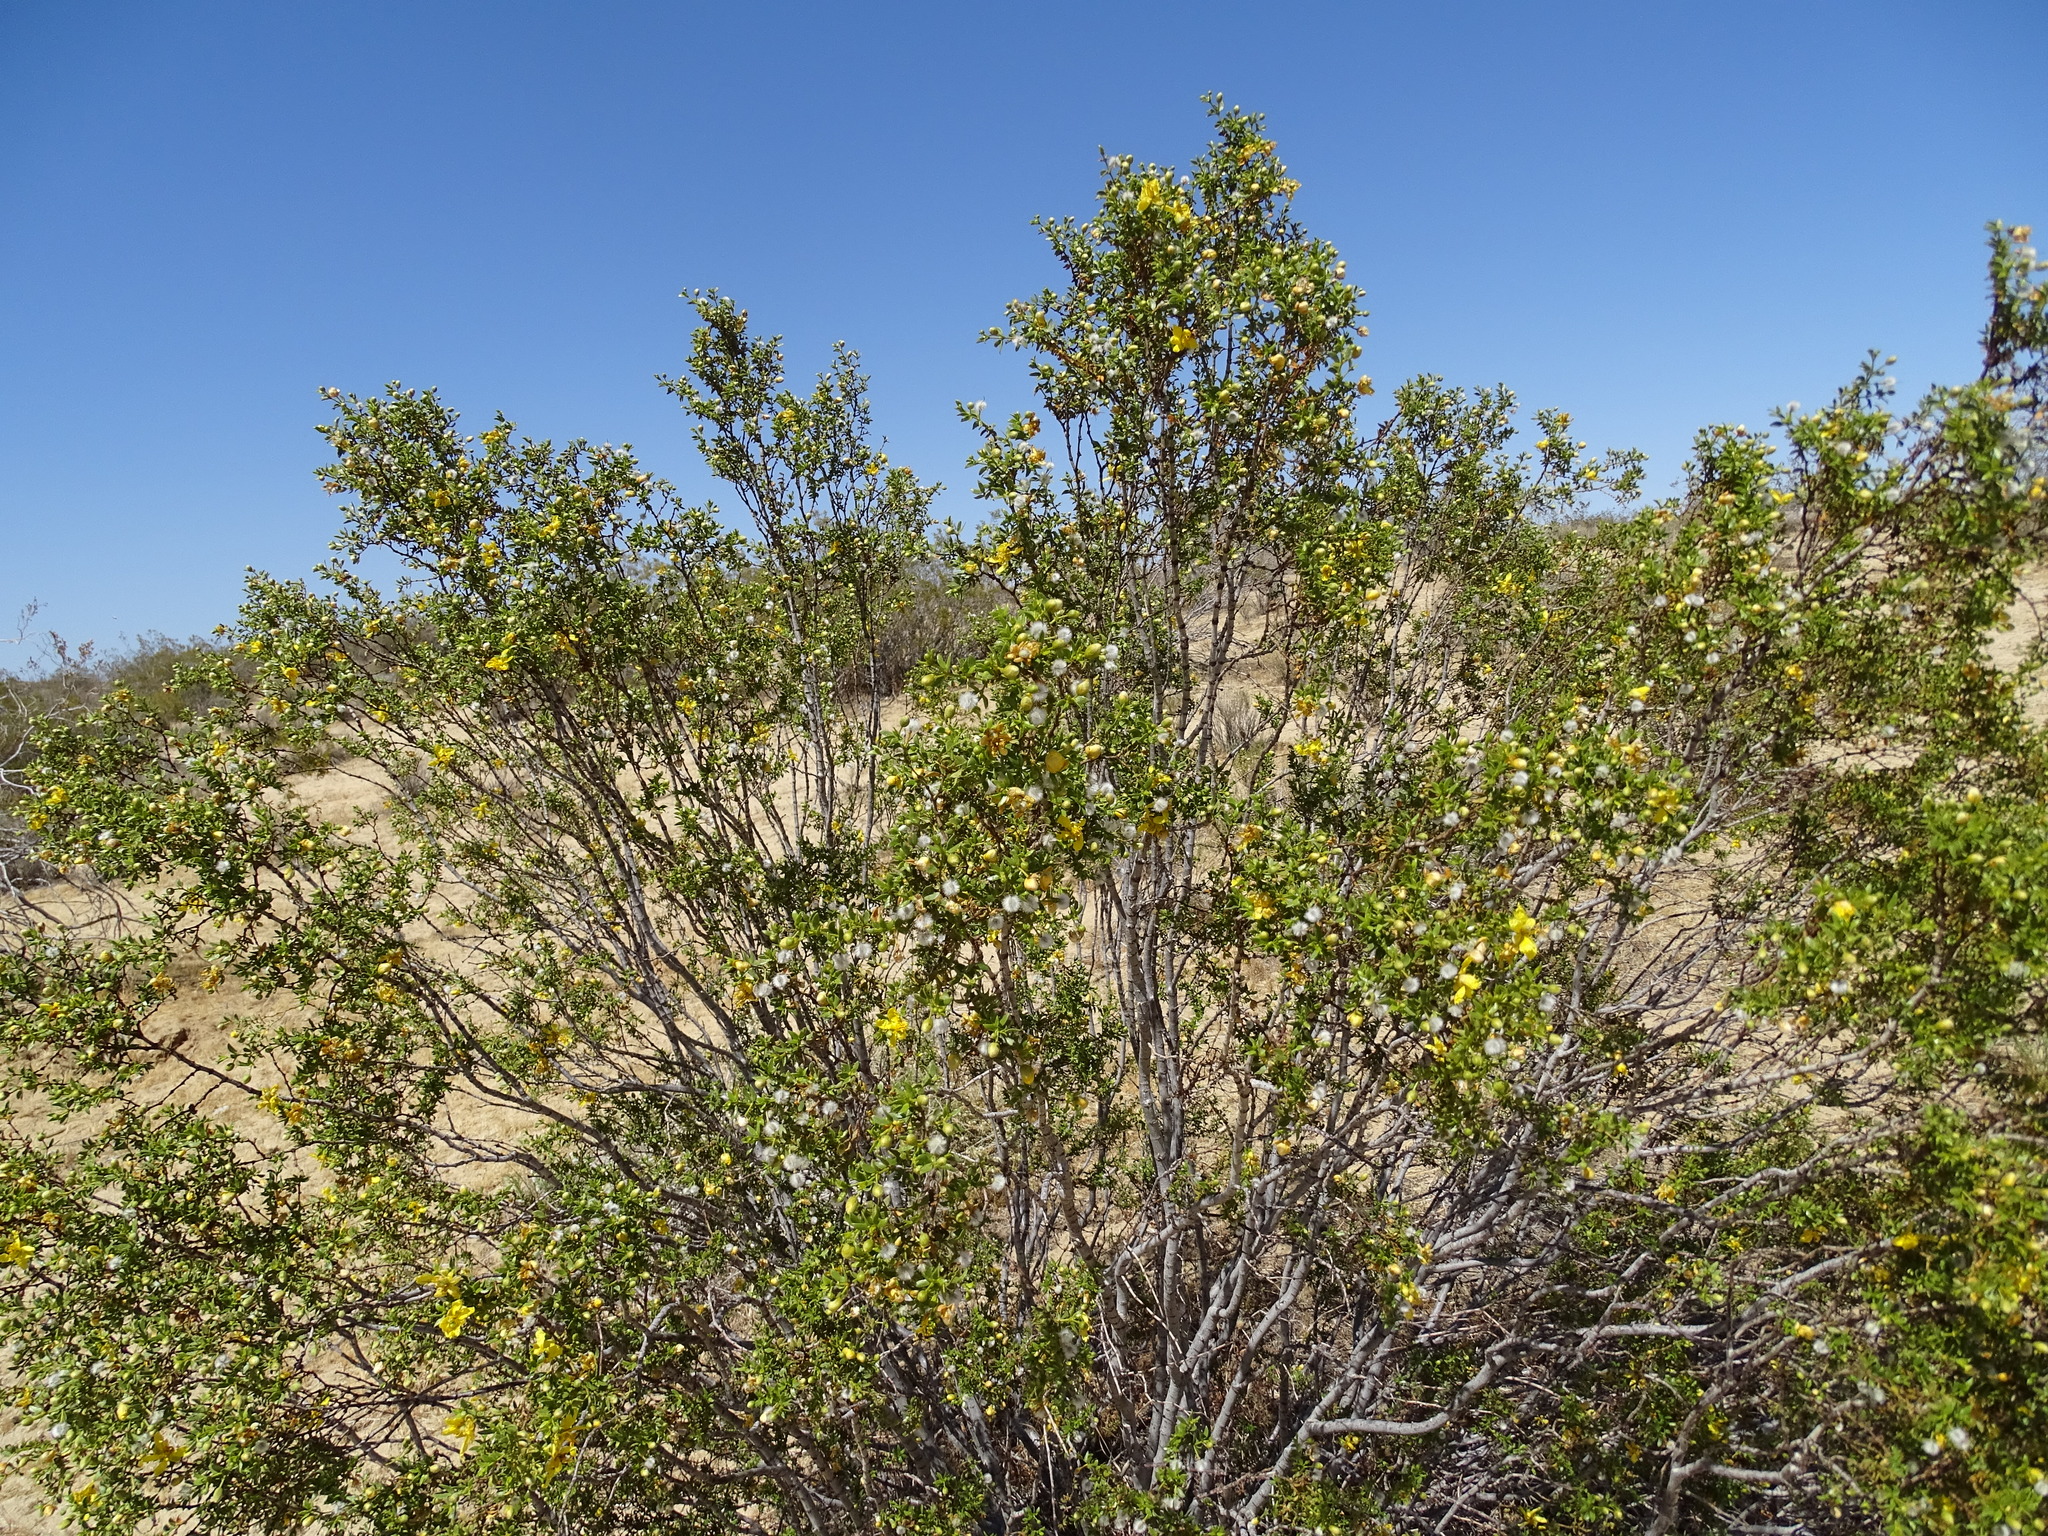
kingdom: Plantae
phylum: Tracheophyta
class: Magnoliopsida
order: Zygophyllales
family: Zygophyllaceae
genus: Larrea
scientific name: Larrea tridentata
